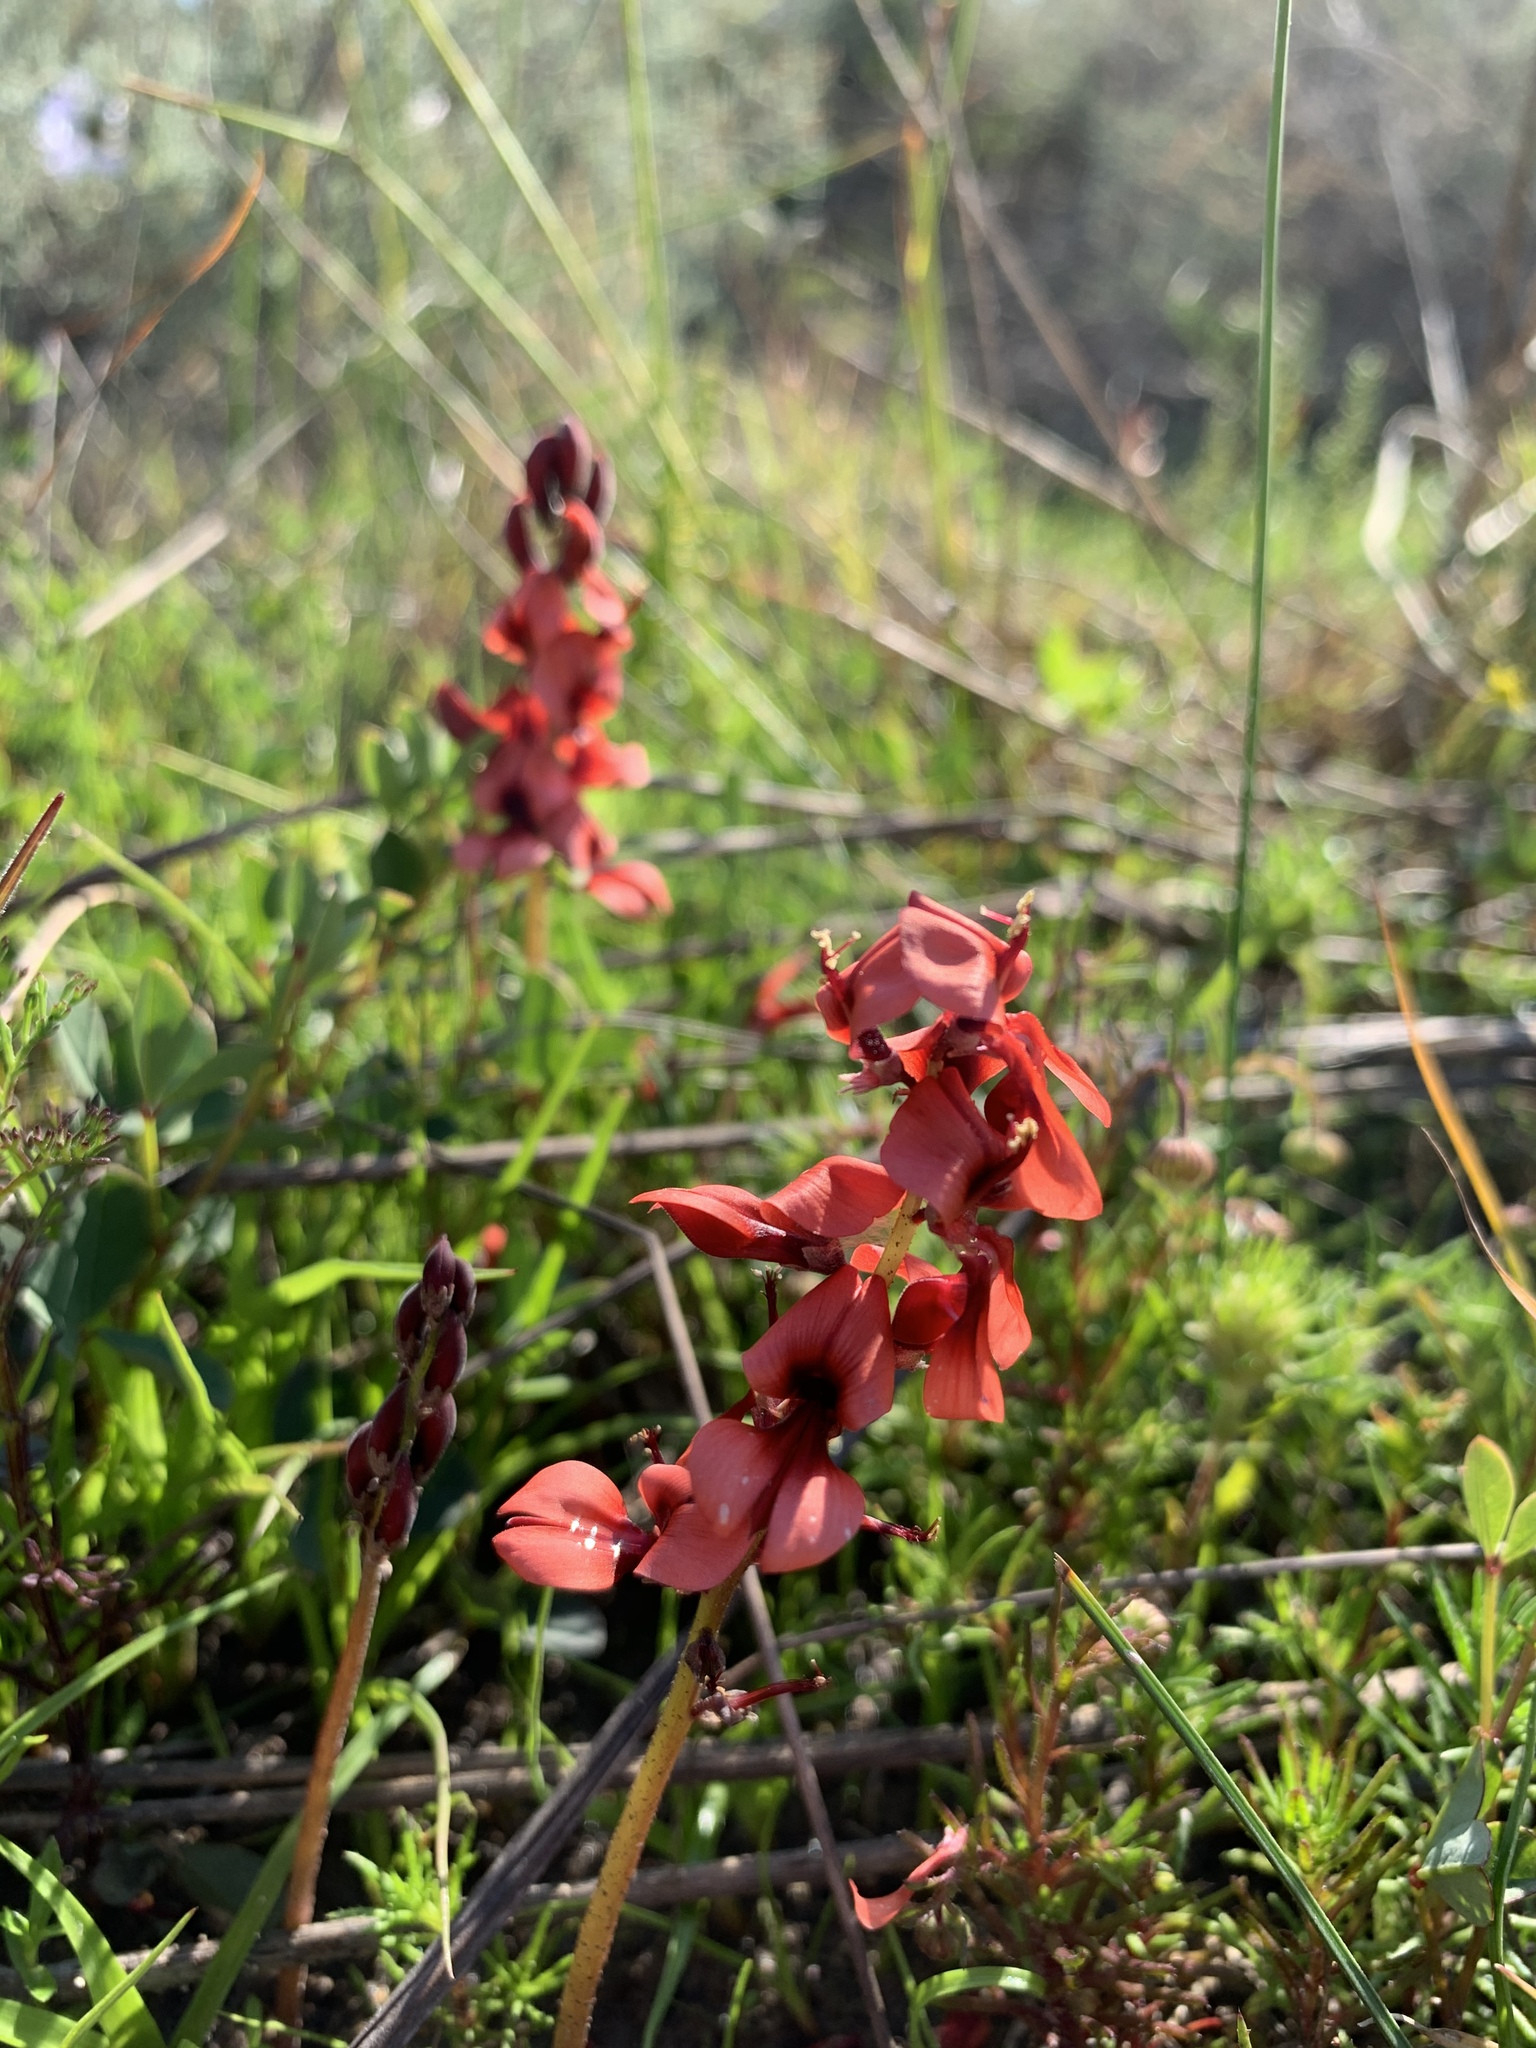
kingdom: Plantae
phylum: Tracheophyta
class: Magnoliopsida
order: Fabales
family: Fabaceae
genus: Indigofera
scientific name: Indigofera procumbens
